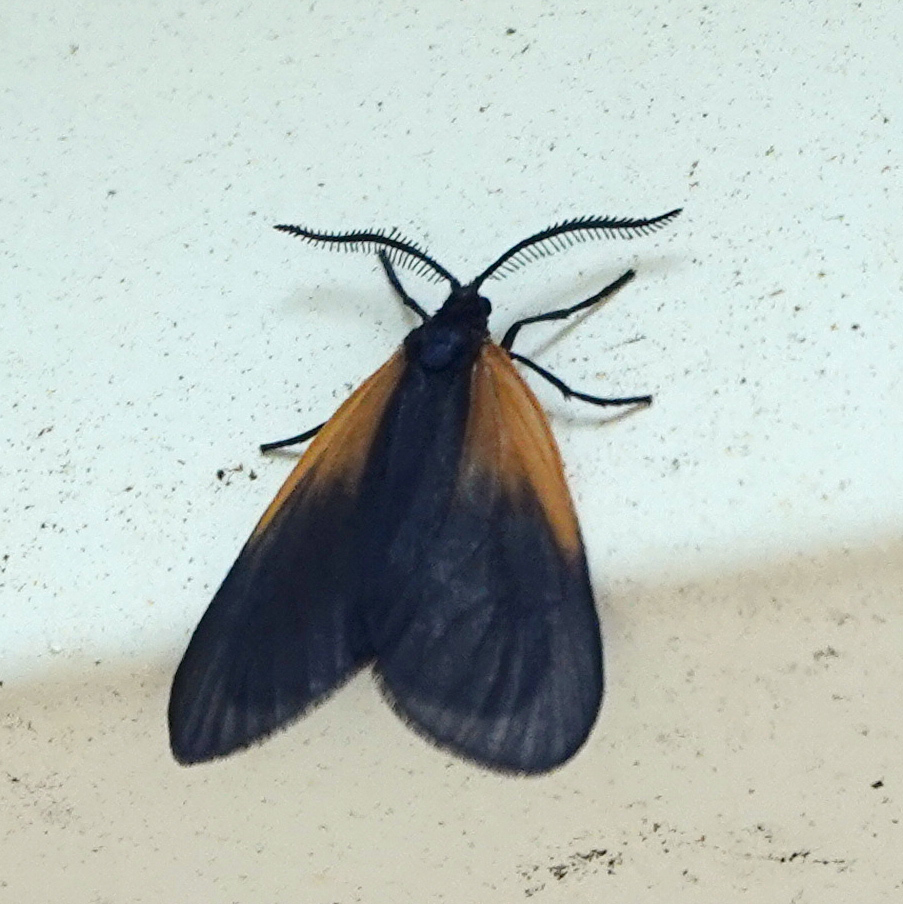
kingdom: Animalia
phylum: Arthropoda
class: Insecta
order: Lepidoptera
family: Zygaenidae
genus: Malthaca
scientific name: Malthaca dimidiata
